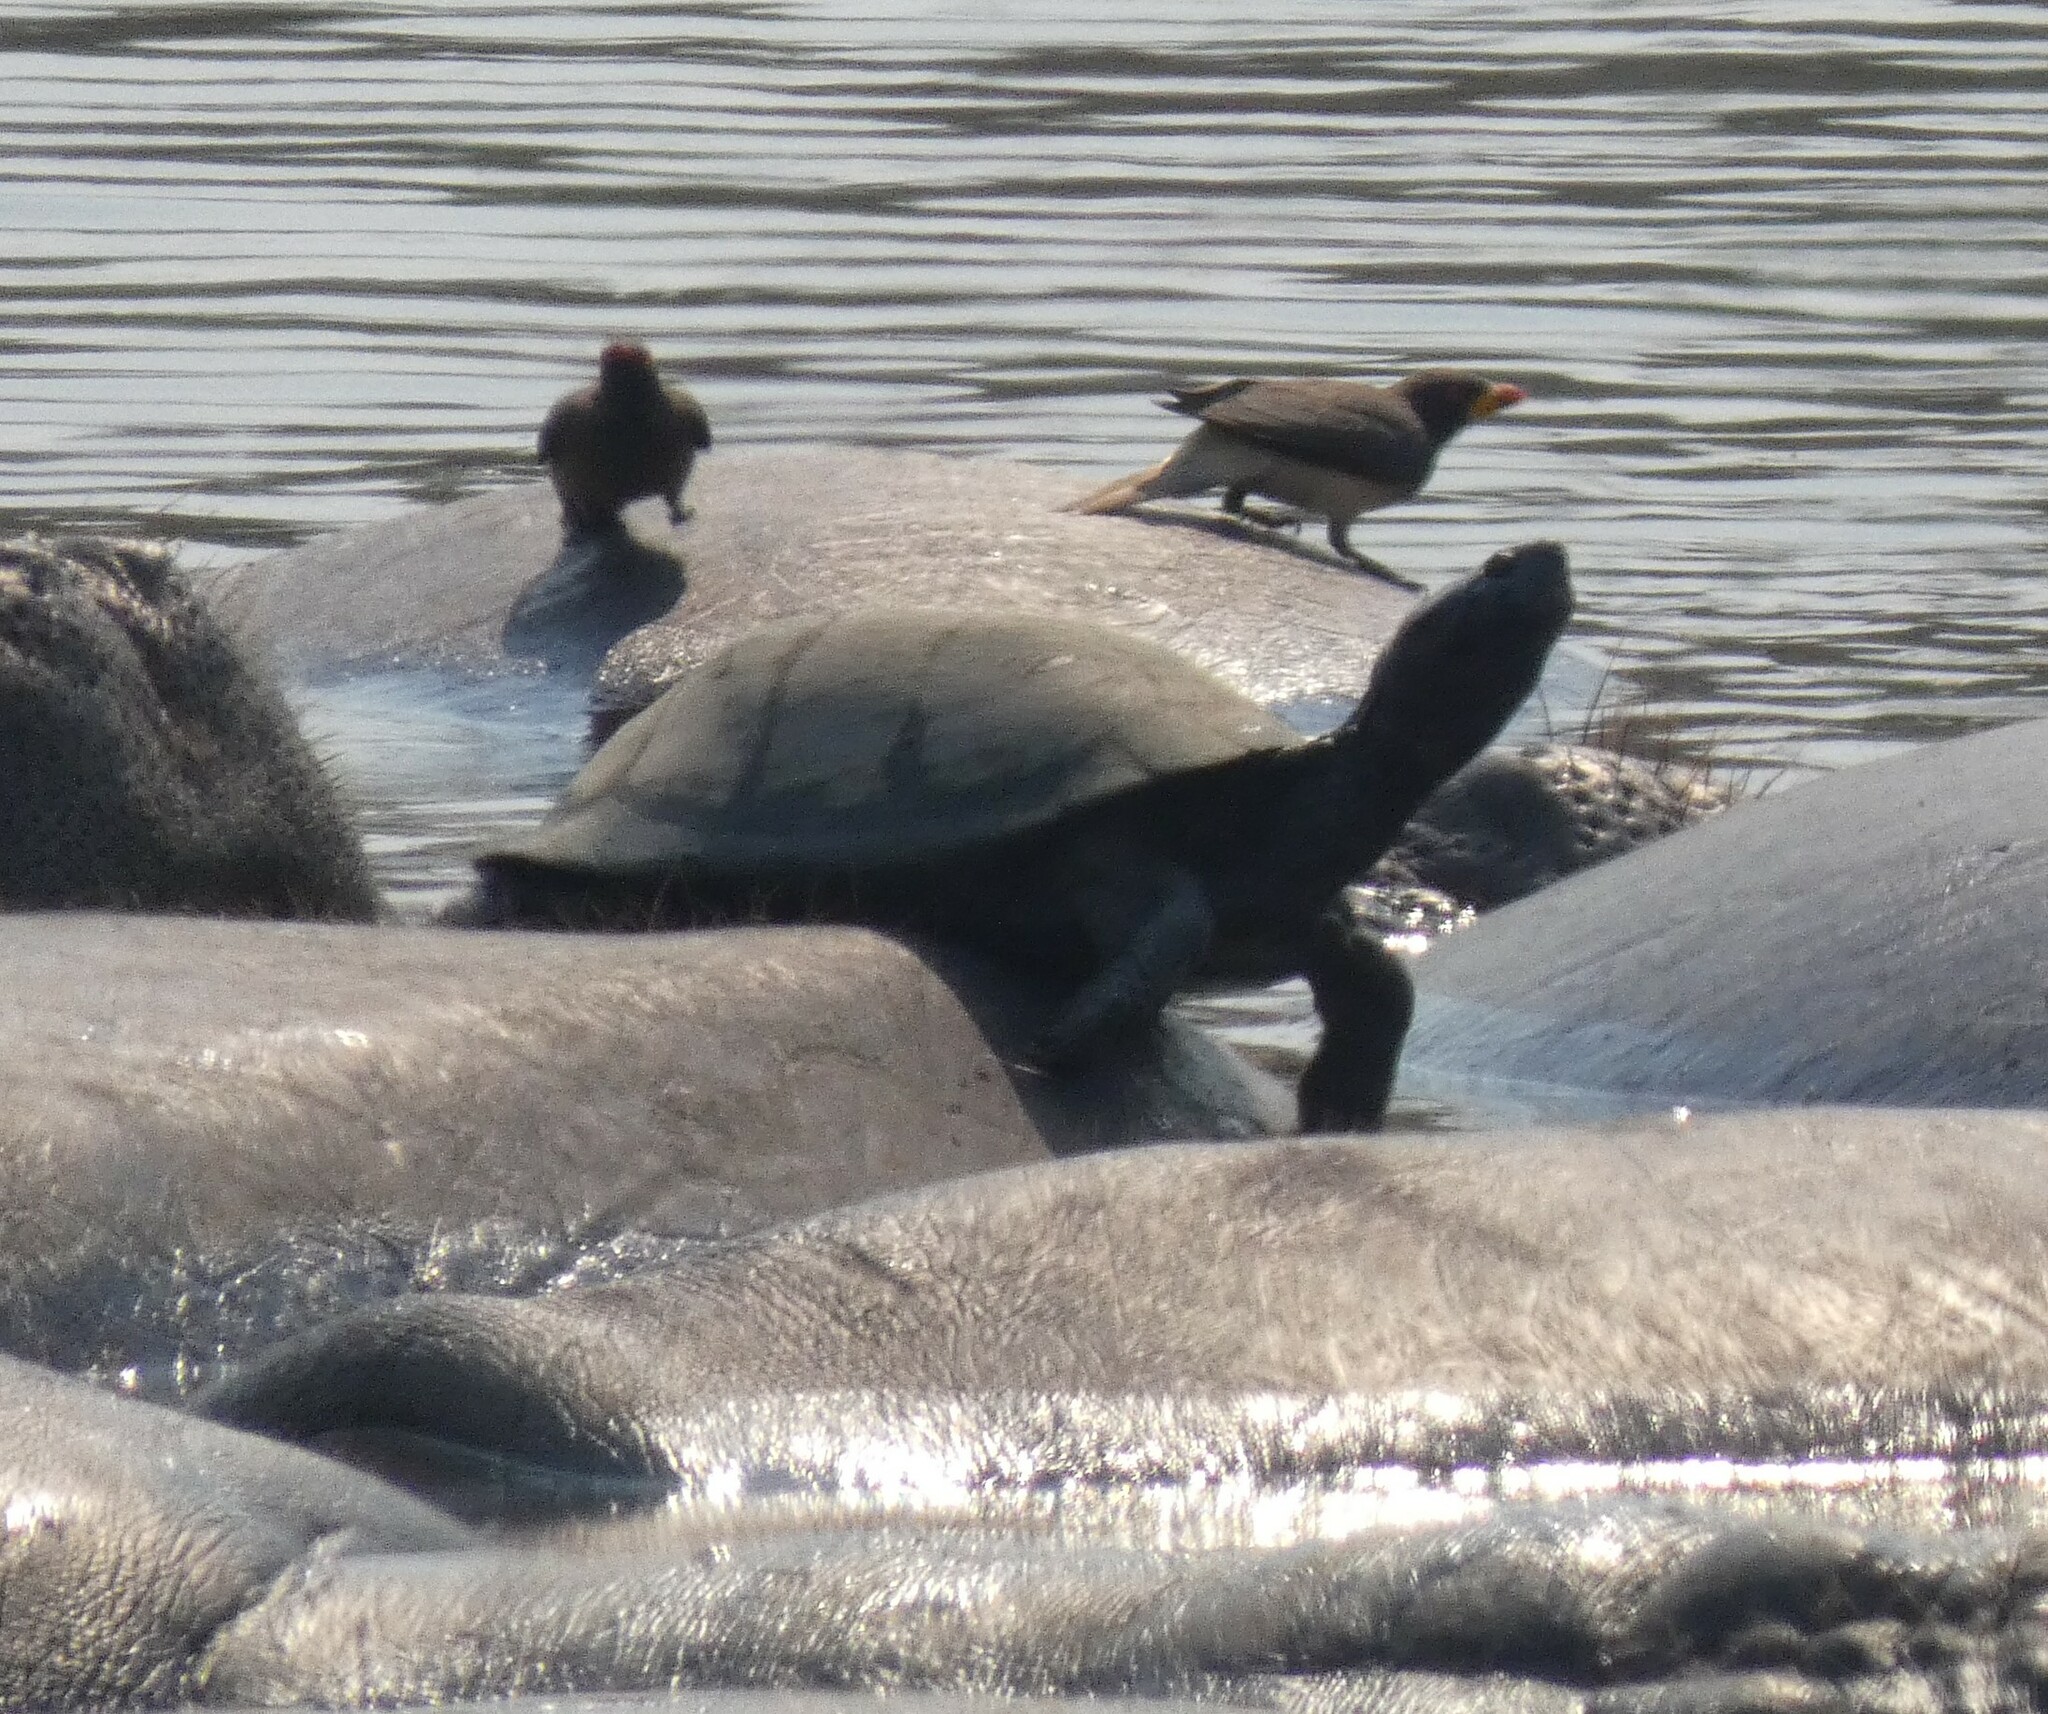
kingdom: Animalia
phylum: Chordata
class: Testudines
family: Pelomedusidae
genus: Pelusios
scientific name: Pelusios sinuatus
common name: Serrated hinged terrapin
